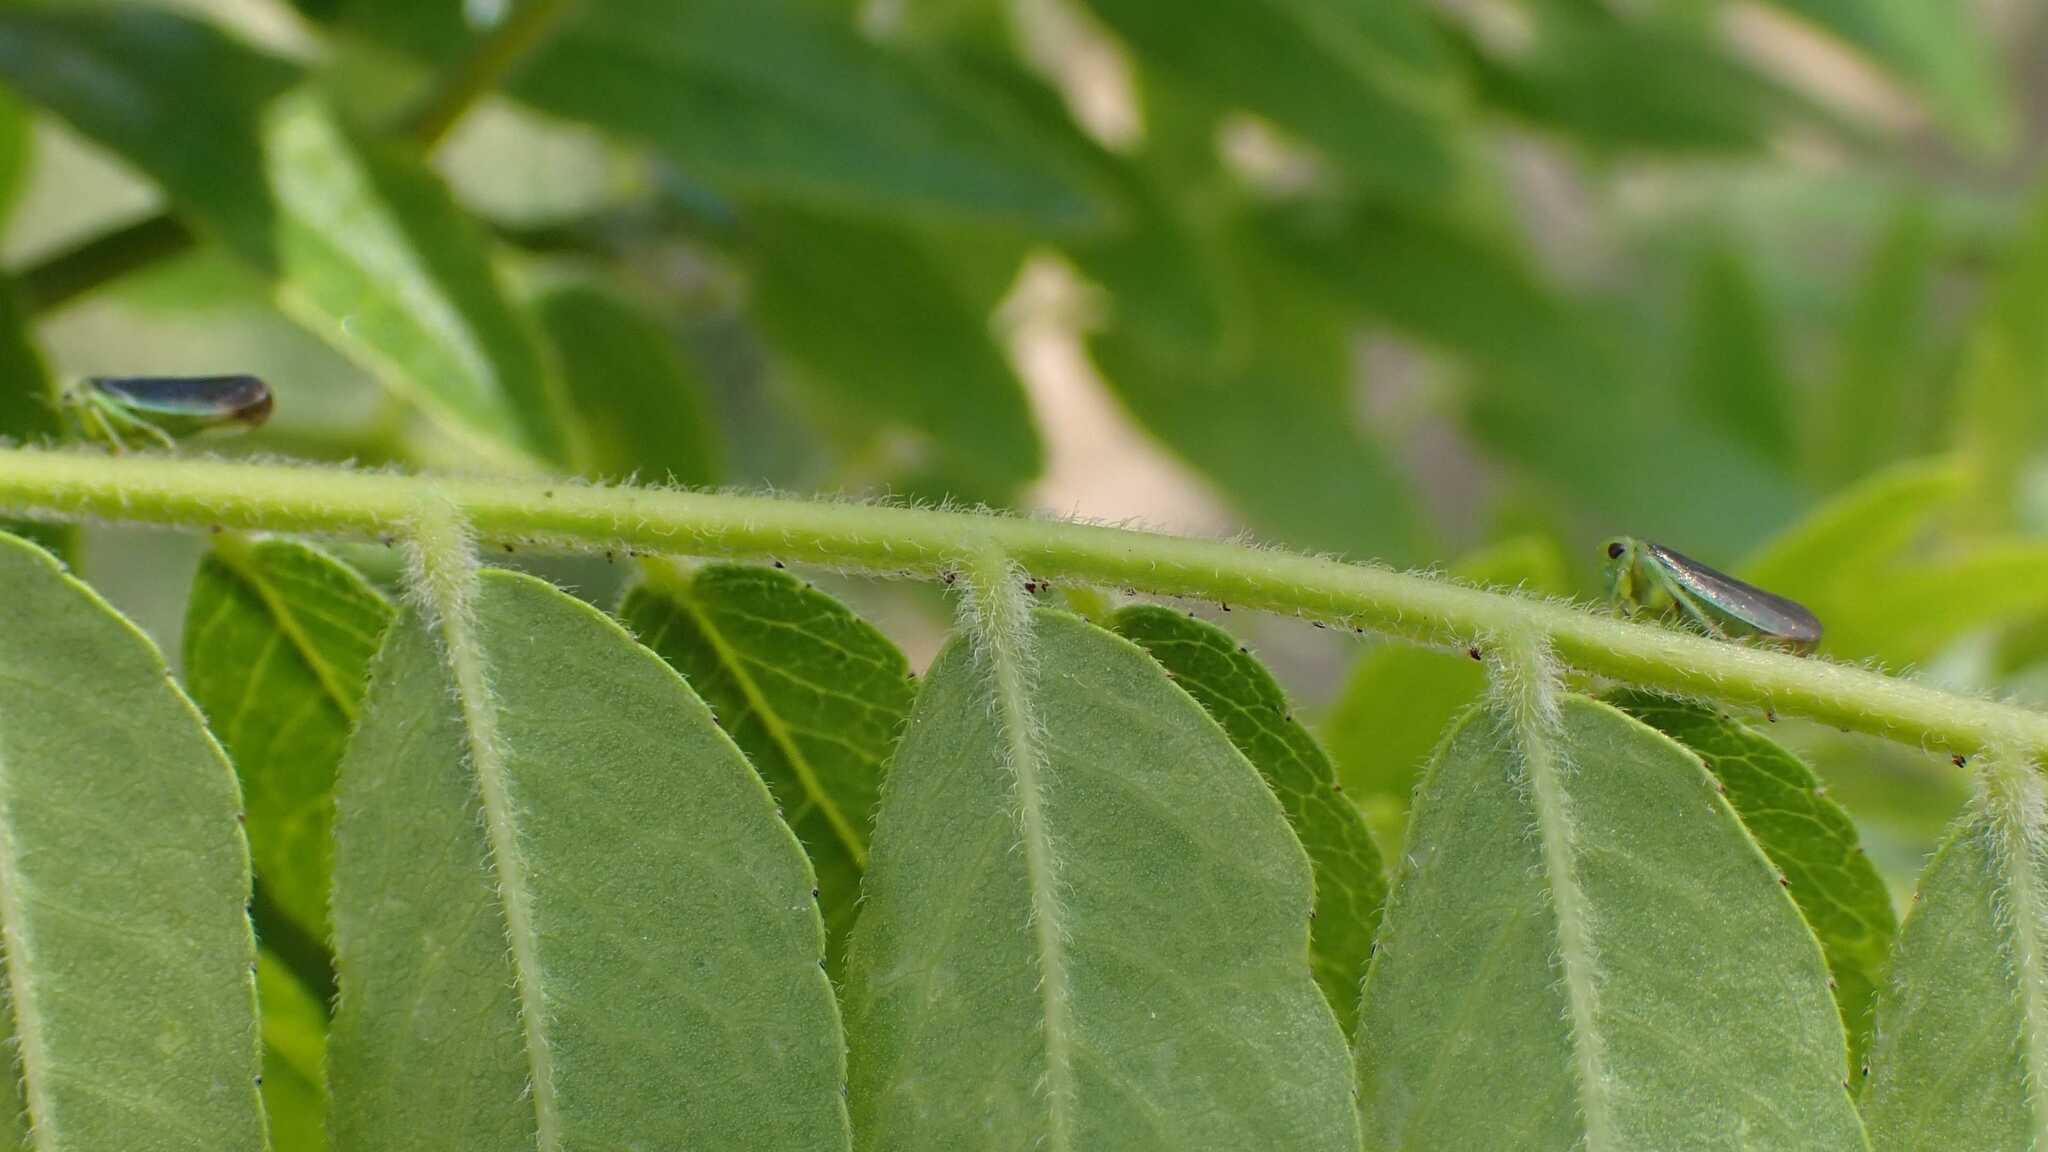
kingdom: Animalia
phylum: Arthropoda
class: Insecta
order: Hemiptera
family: Cicadellidae
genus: Macropsis
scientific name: Macropsis fumipennis
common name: The honeylocust leafhopper
